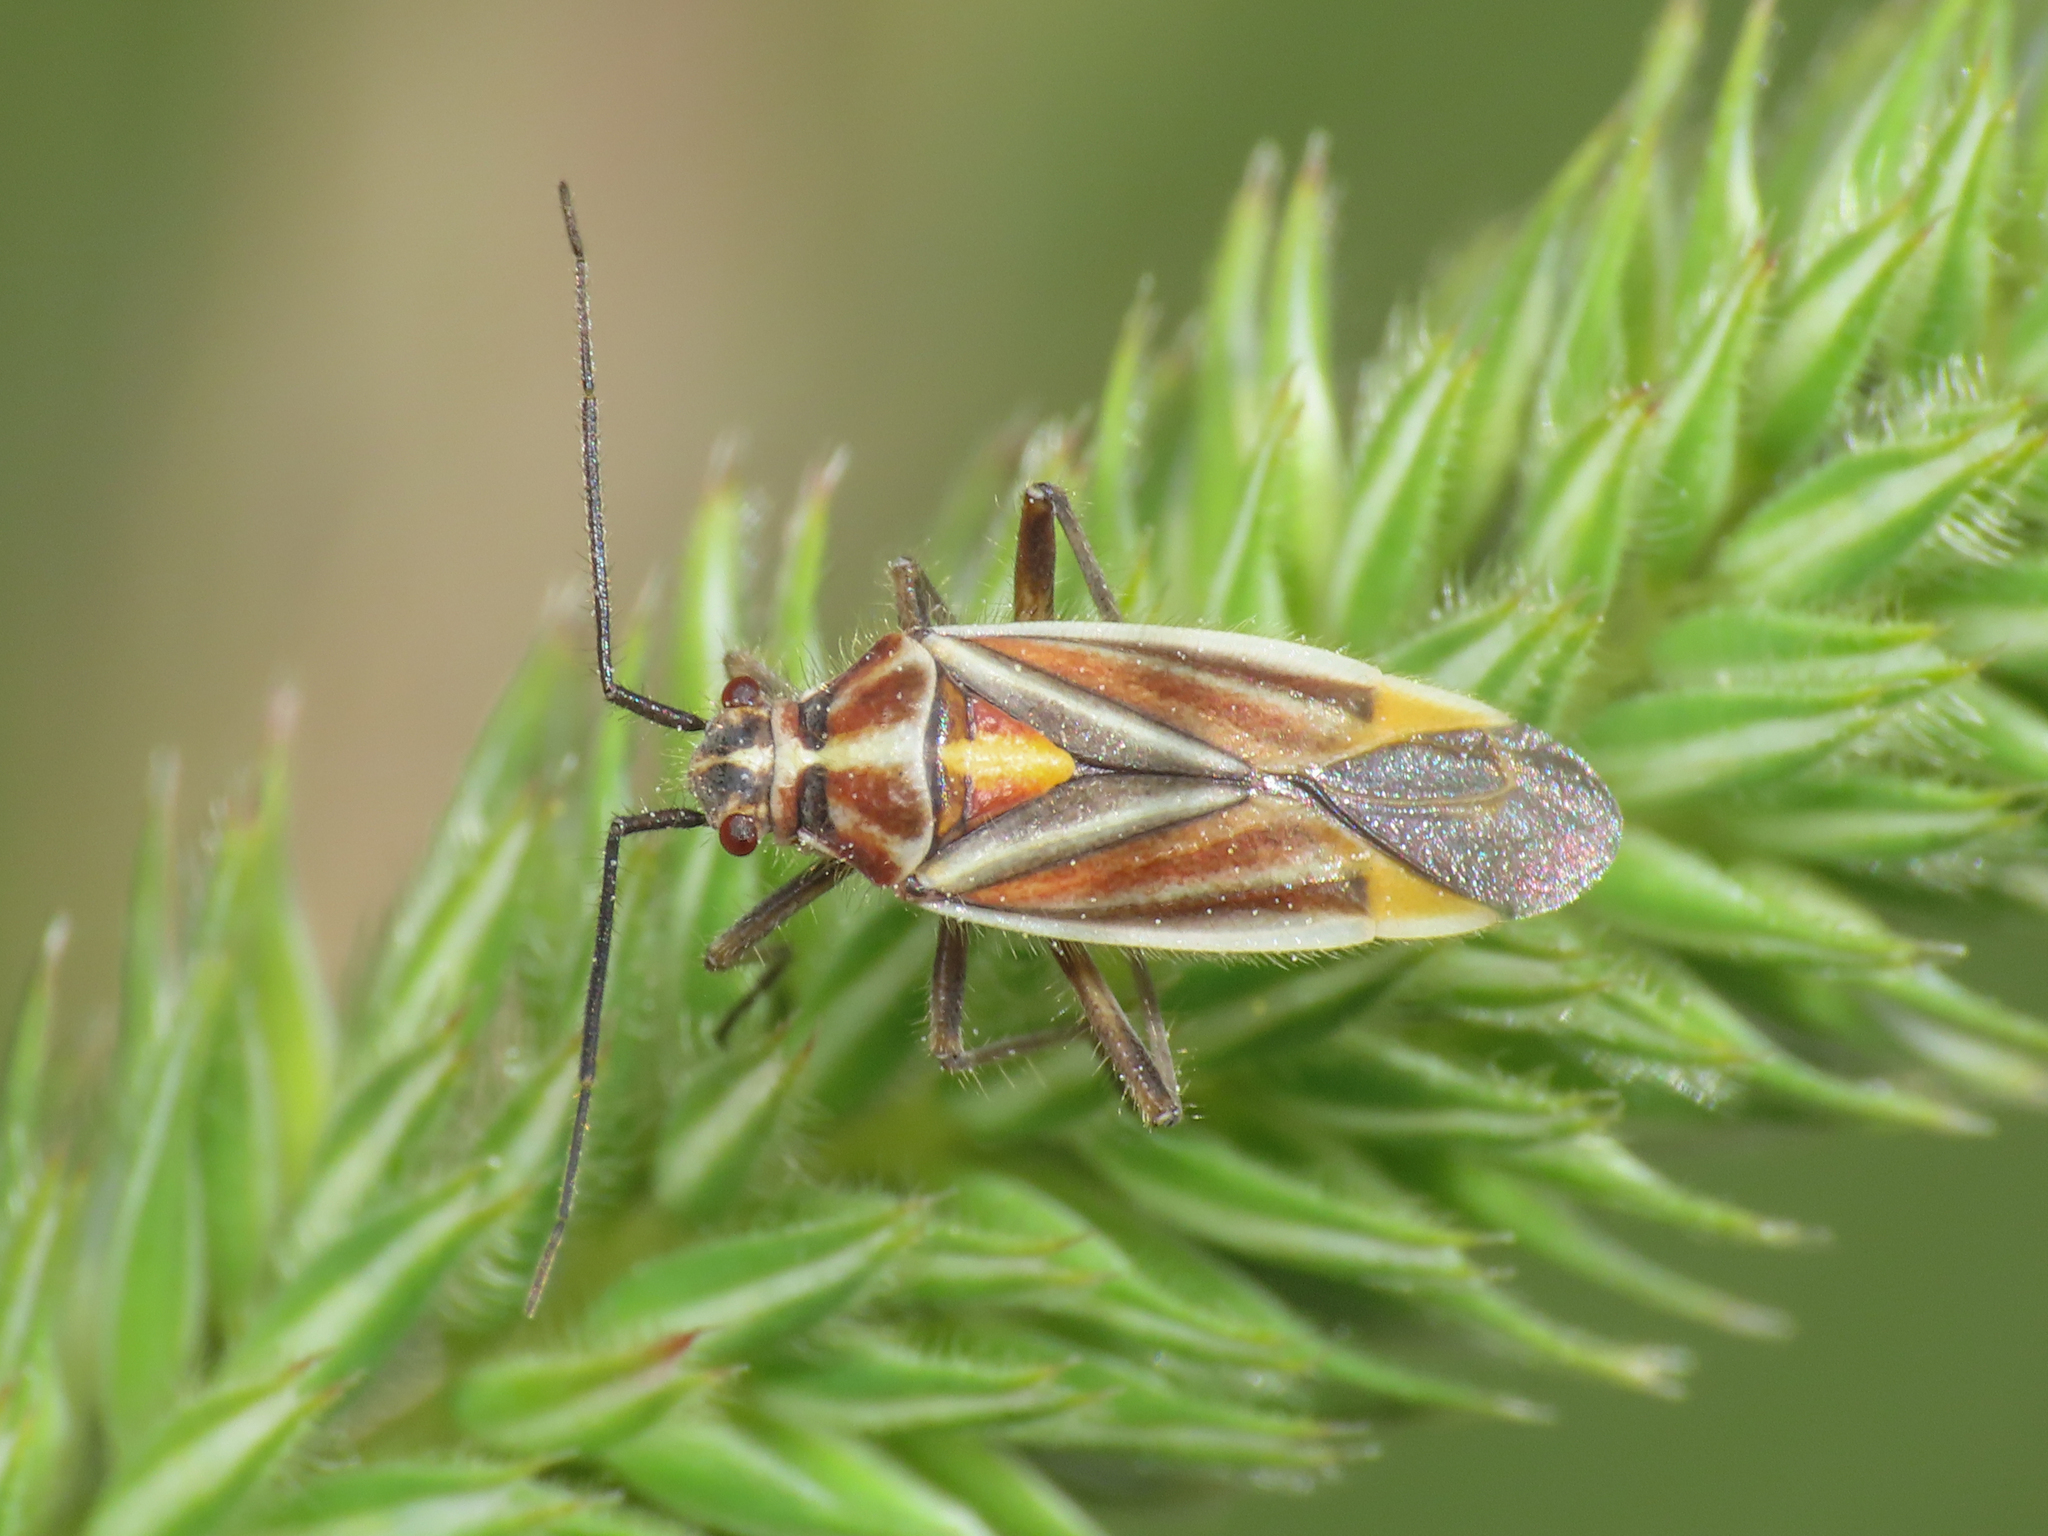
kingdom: Animalia
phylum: Arthropoda
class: Insecta
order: Hemiptera
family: Miridae
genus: Horistus
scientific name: Horistus orientalis
